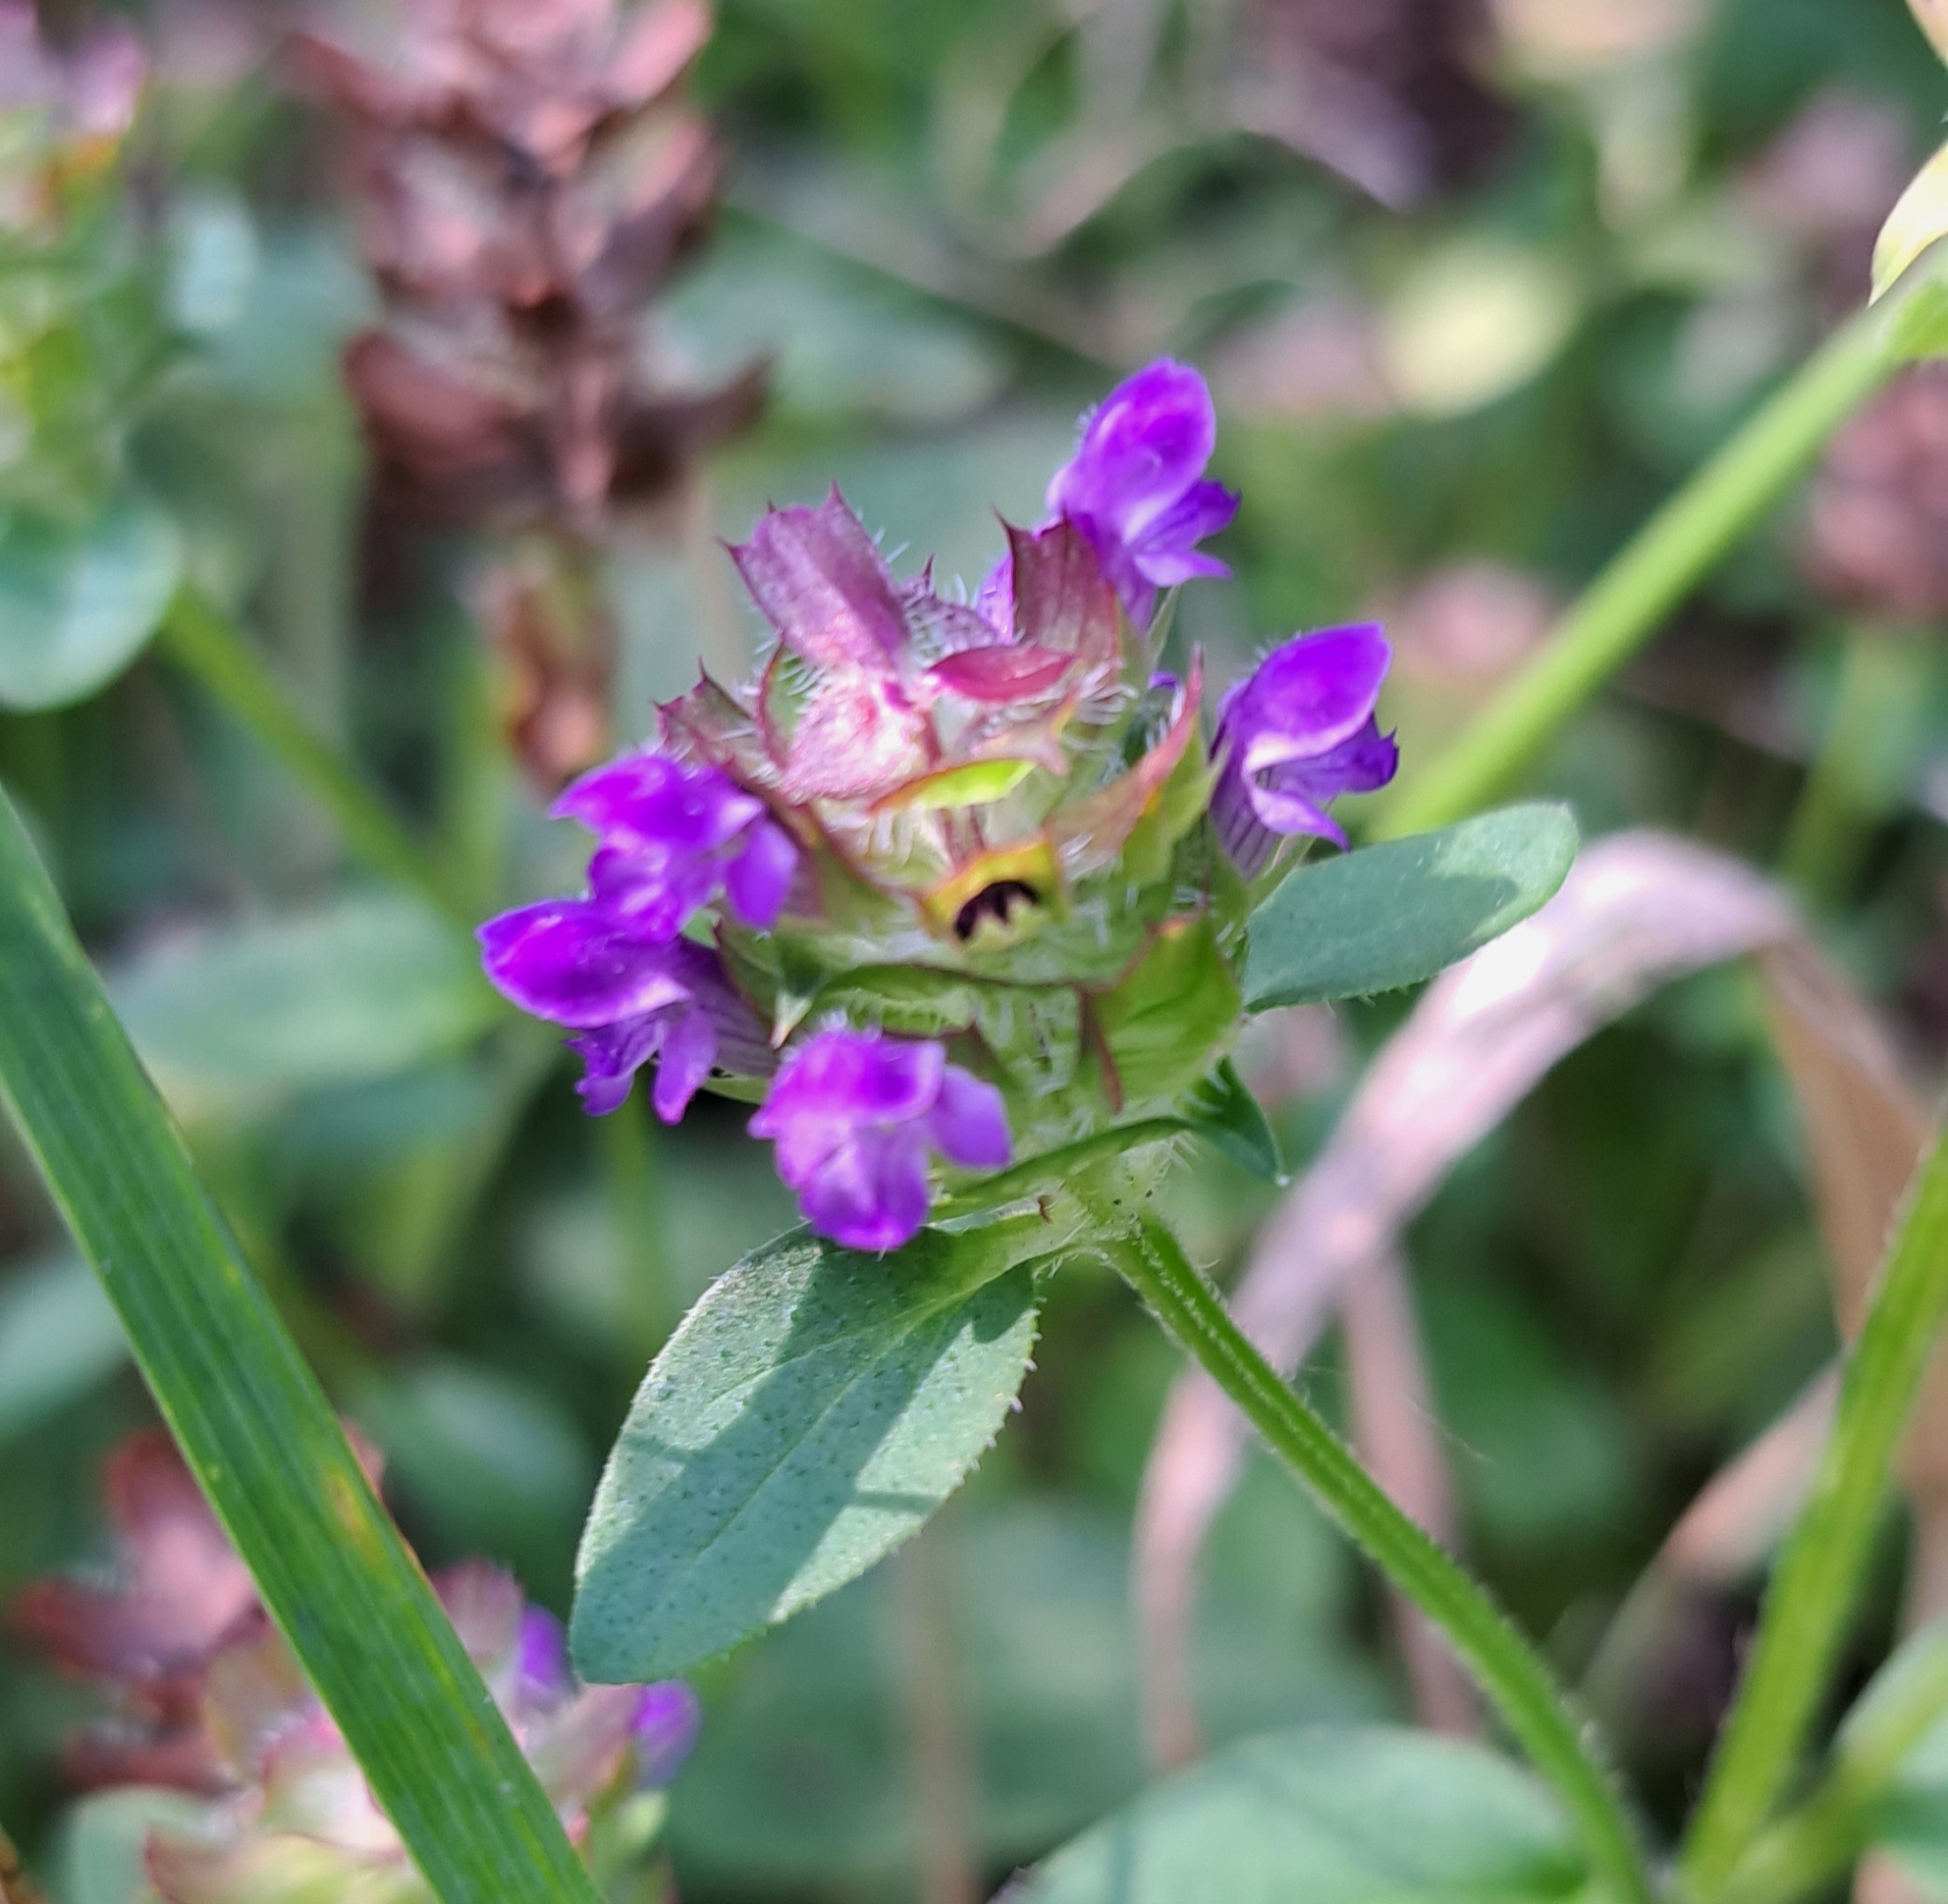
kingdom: Plantae
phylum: Tracheophyta
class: Magnoliopsida
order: Lamiales
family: Lamiaceae
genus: Prunella
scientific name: Prunella vulgaris
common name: Heal-all
